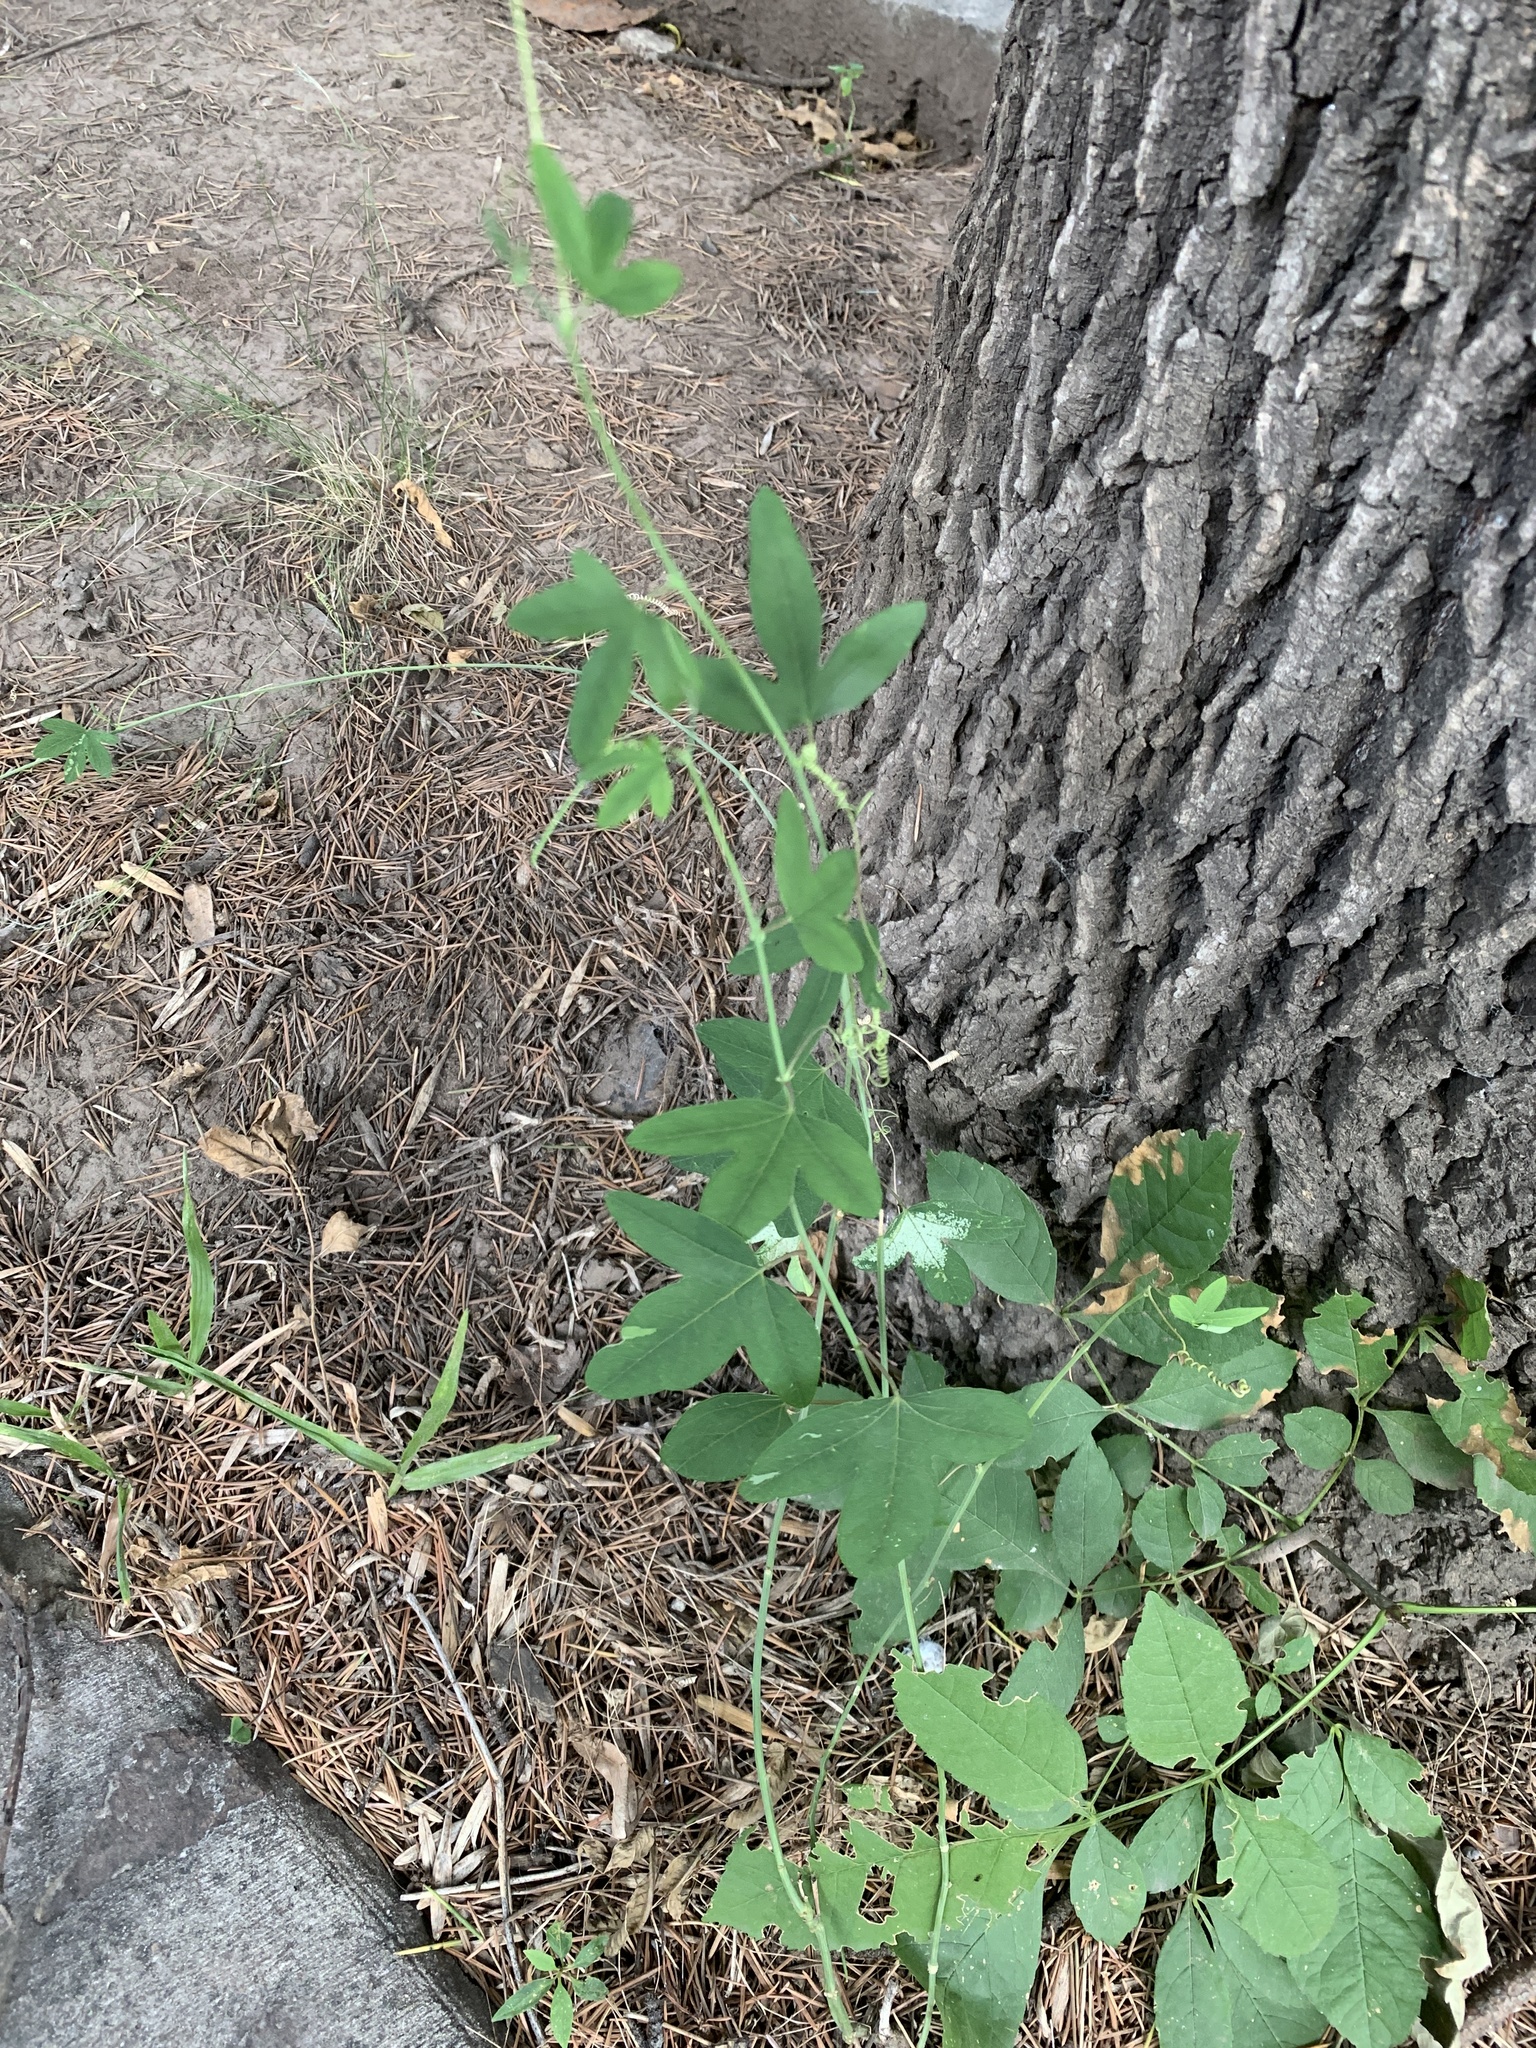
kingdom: Plantae
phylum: Tracheophyta
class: Magnoliopsida
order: Malpighiales
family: Passifloraceae
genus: Passiflora
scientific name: Passiflora caerulea
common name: Blue passionflower
